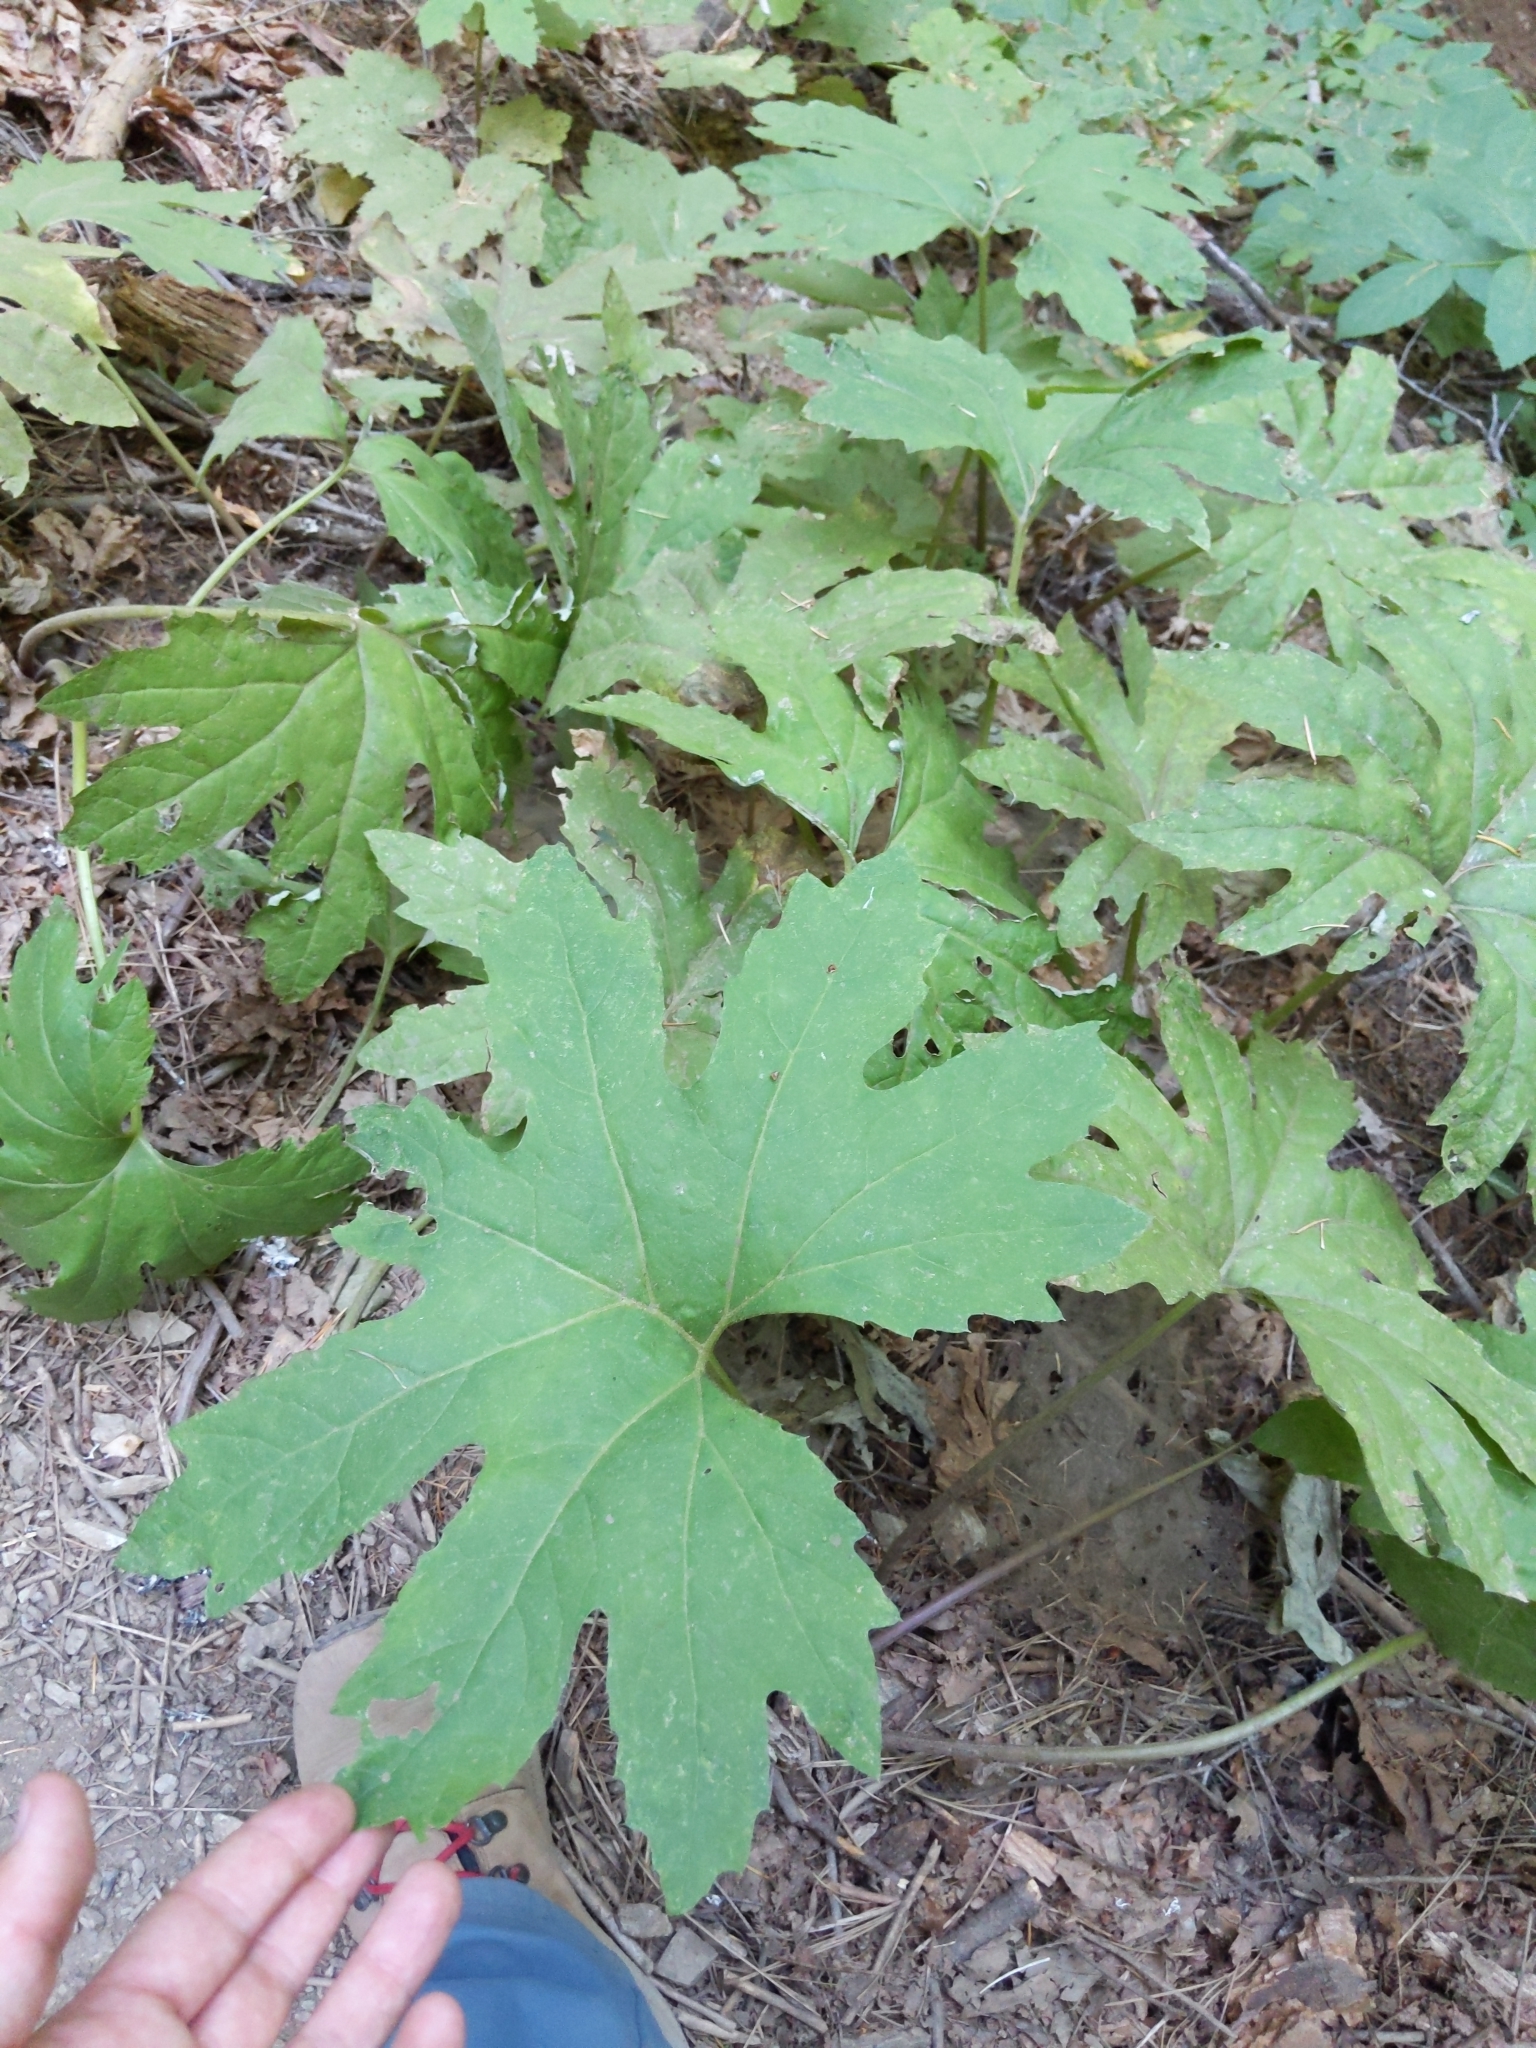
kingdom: Plantae
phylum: Tracheophyta
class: Magnoliopsida
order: Asterales
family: Asteraceae
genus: Petasites
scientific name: Petasites frigidus
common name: Arctic butterbur
